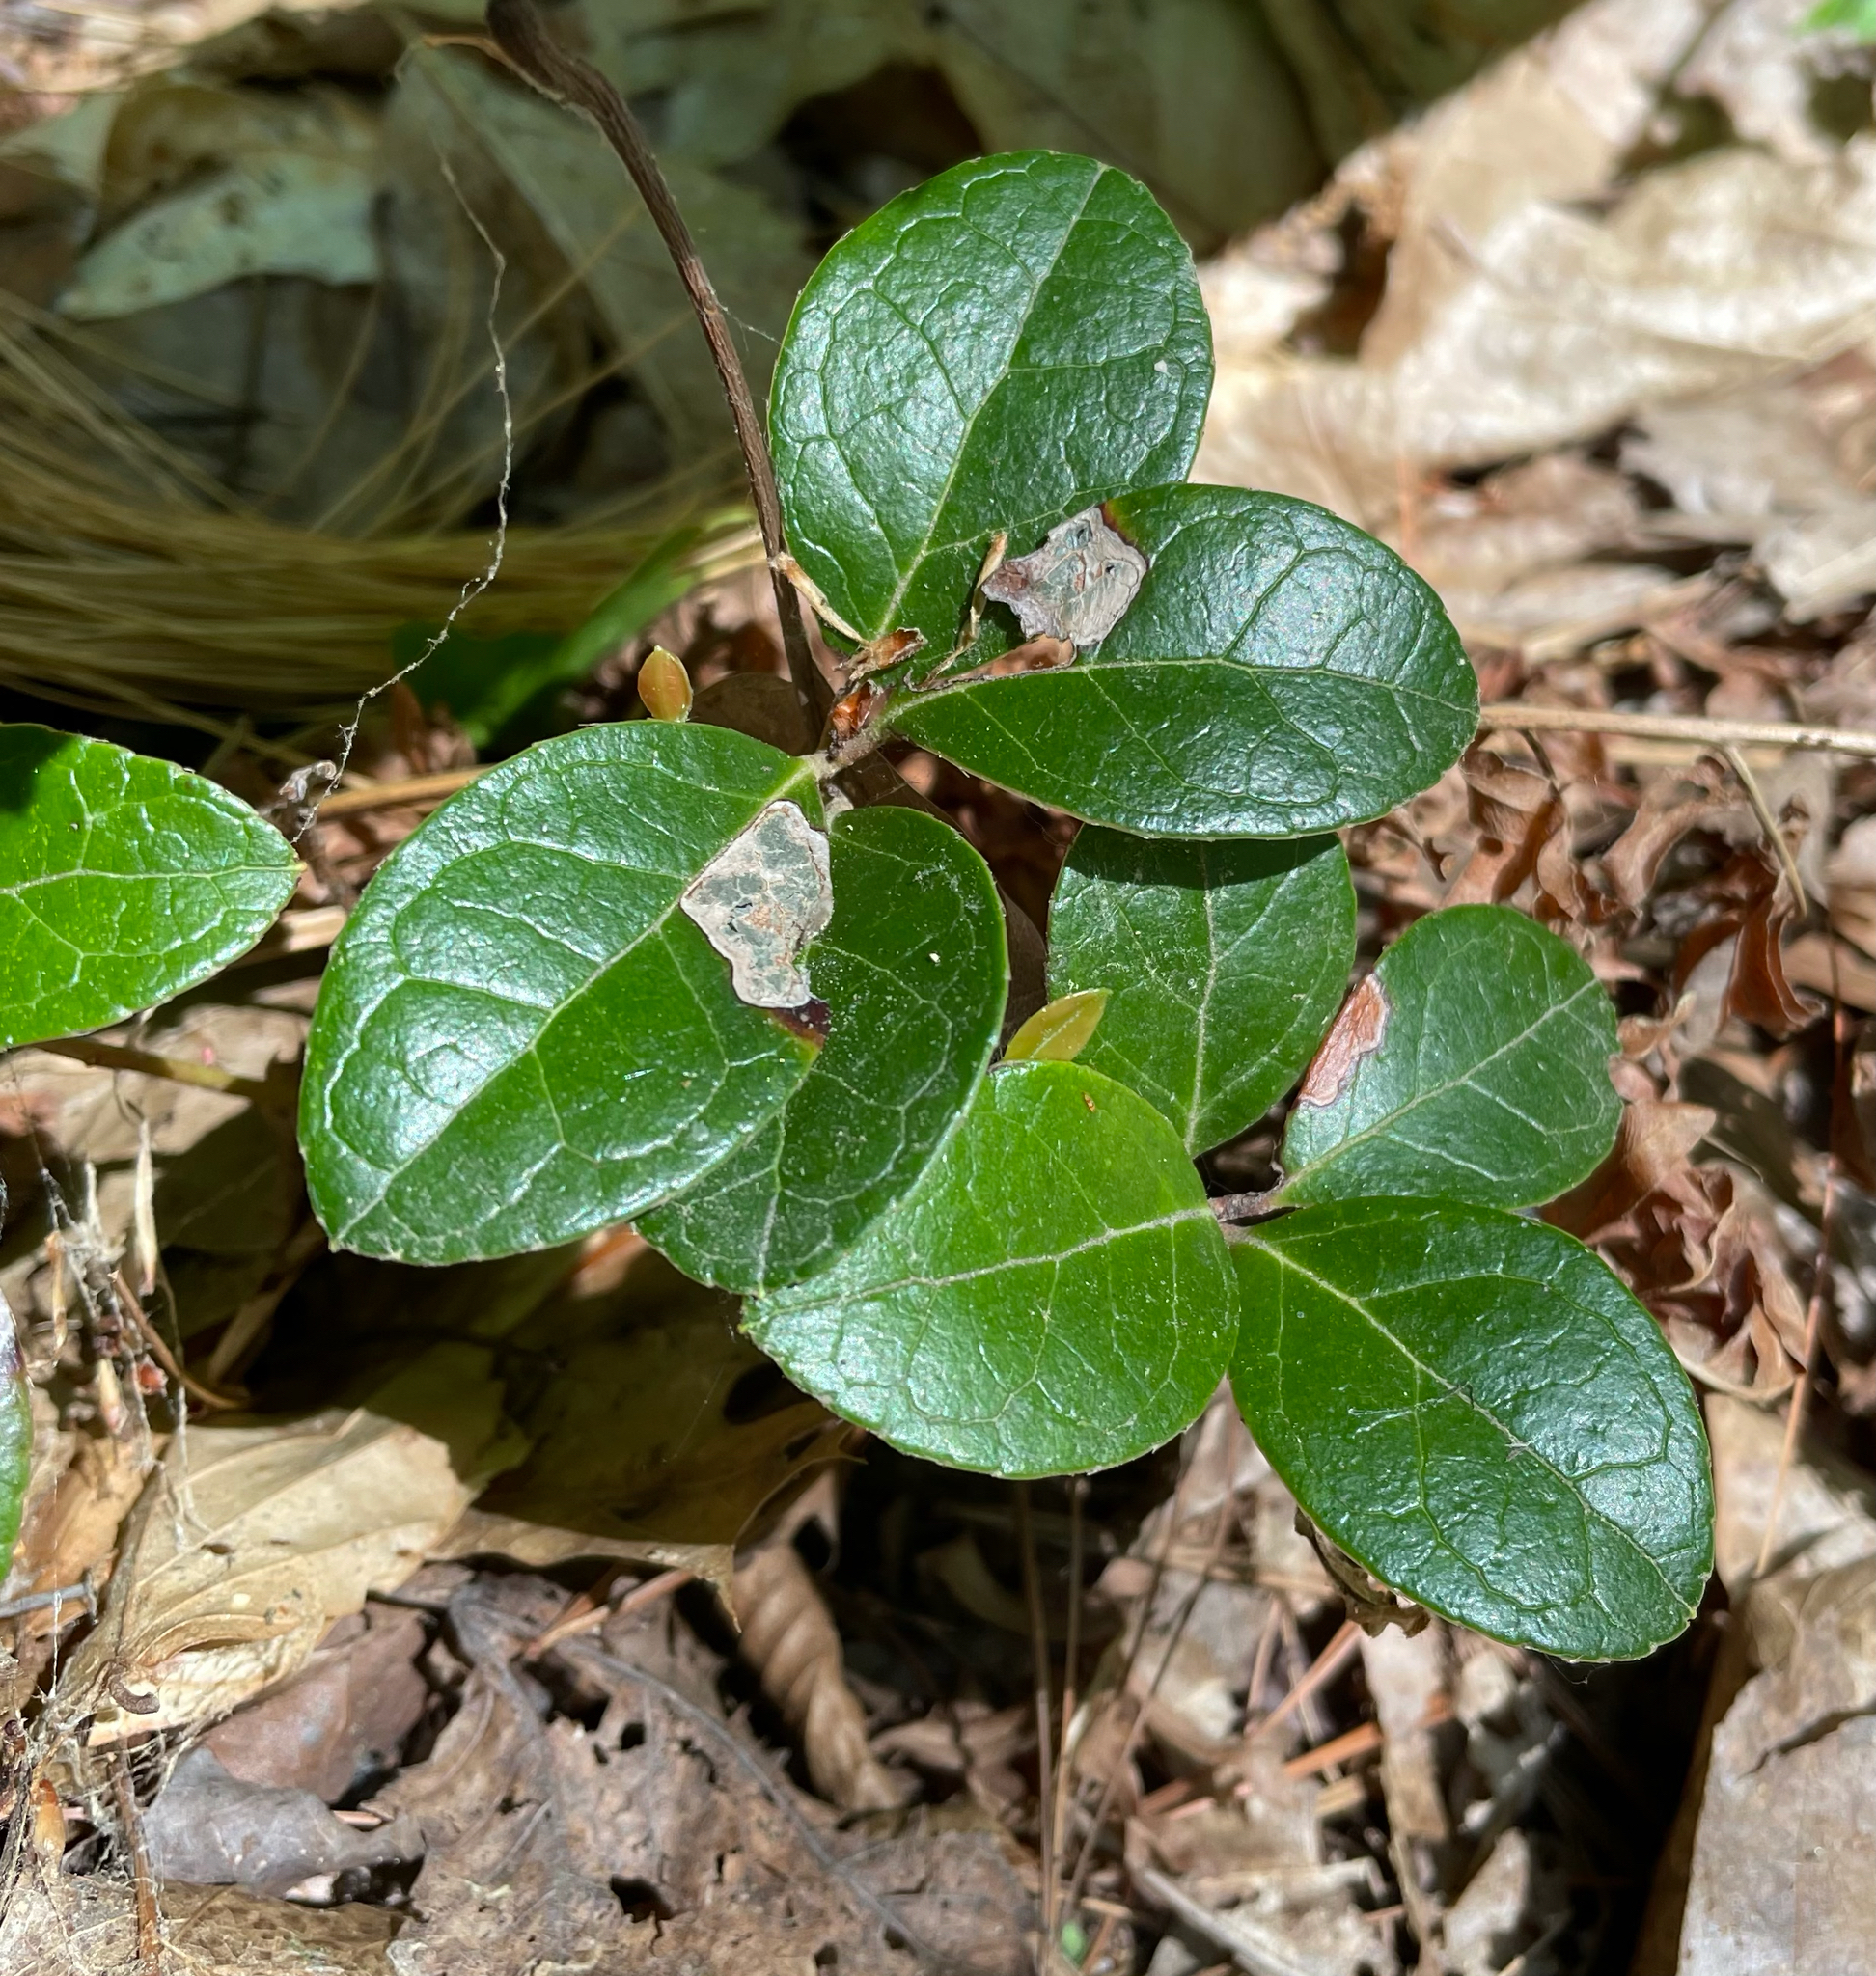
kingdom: Plantae
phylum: Tracheophyta
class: Magnoliopsida
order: Ericales
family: Ericaceae
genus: Gaultheria
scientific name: Gaultheria procumbens
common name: Checkerberry
